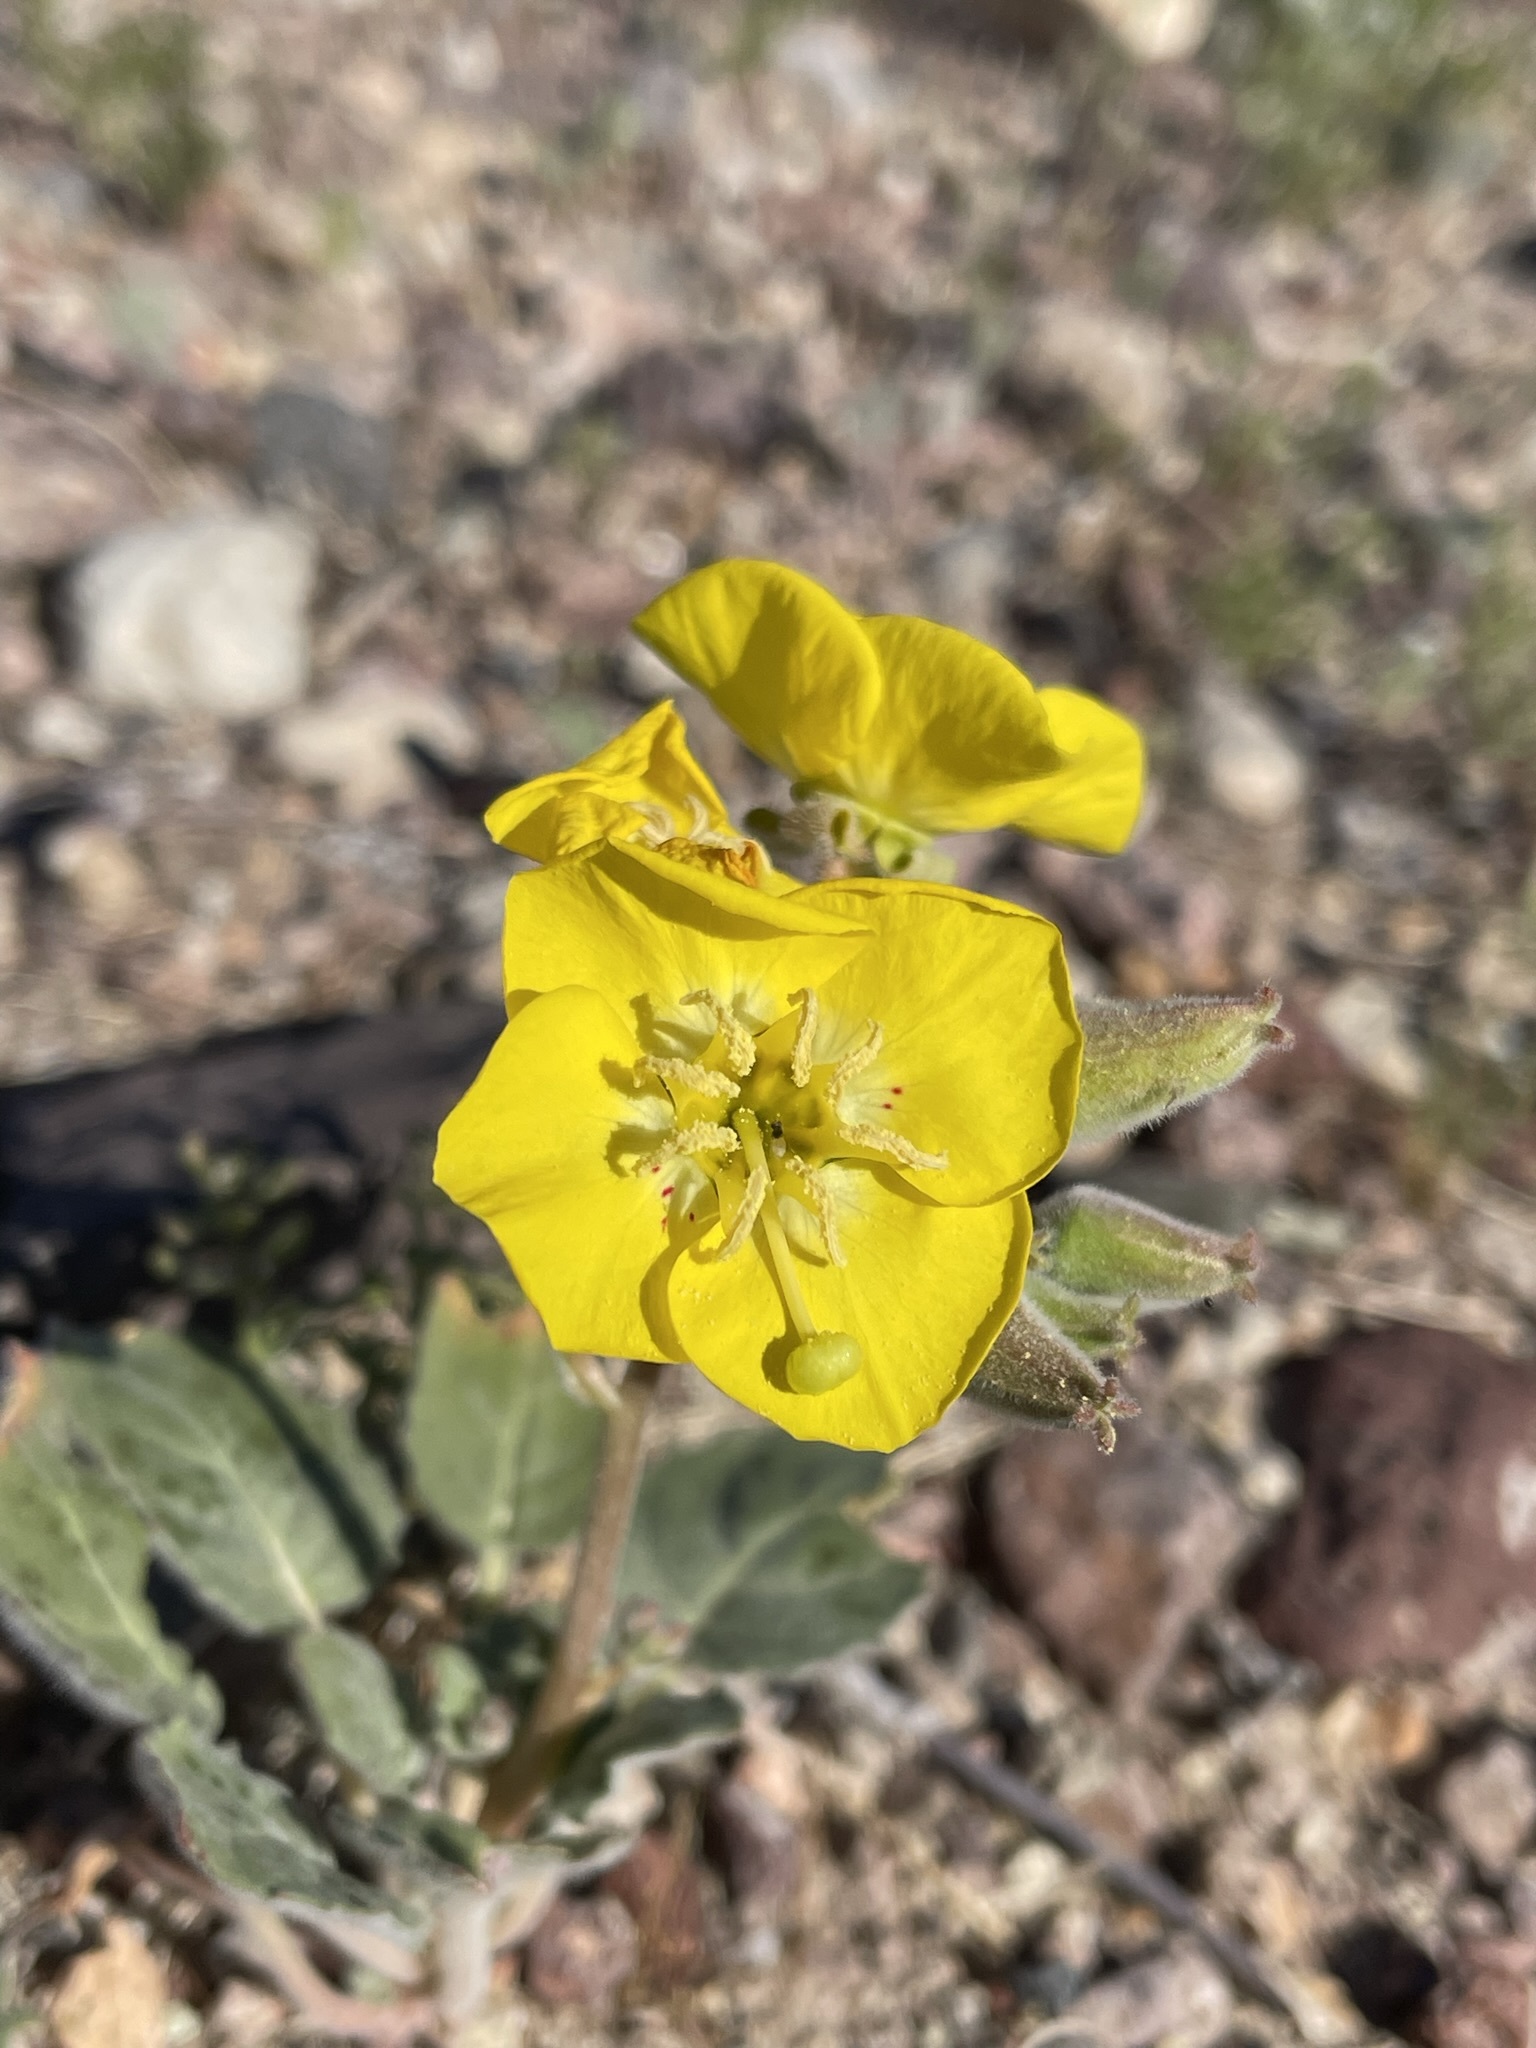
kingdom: Plantae
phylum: Tracheophyta
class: Magnoliopsida
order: Myrtales
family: Onagraceae
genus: Chylismia
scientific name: Chylismia brevipes
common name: Yellow cups
